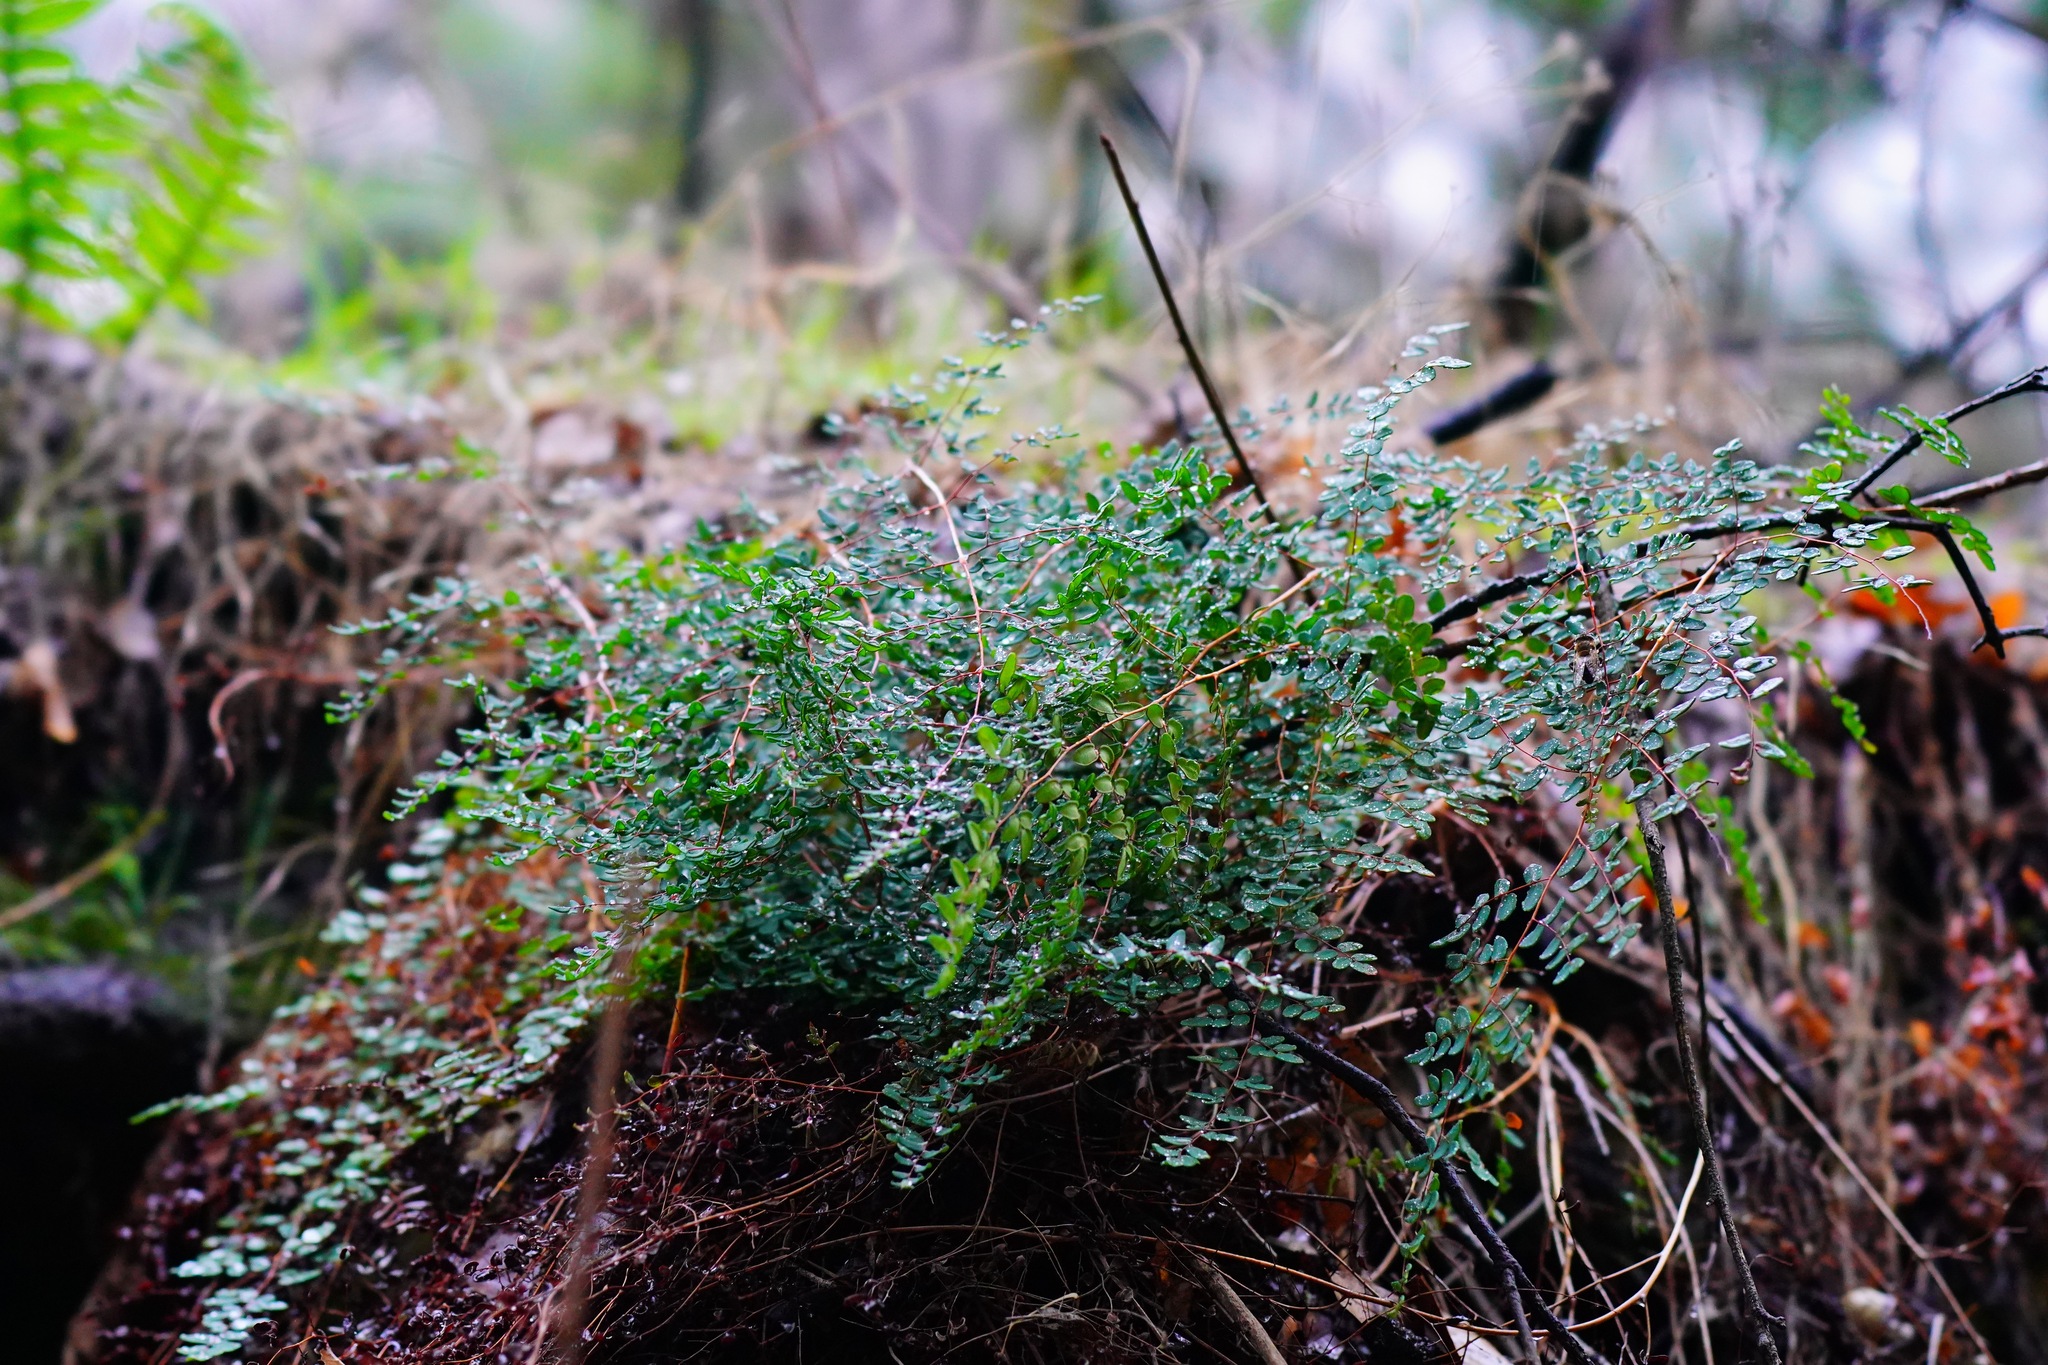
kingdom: Plantae
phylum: Tracheophyta
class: Polypodiopsida
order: Polypodiales
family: Pteridaceae
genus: Pellaea
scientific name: Pellaea andromedifolia
